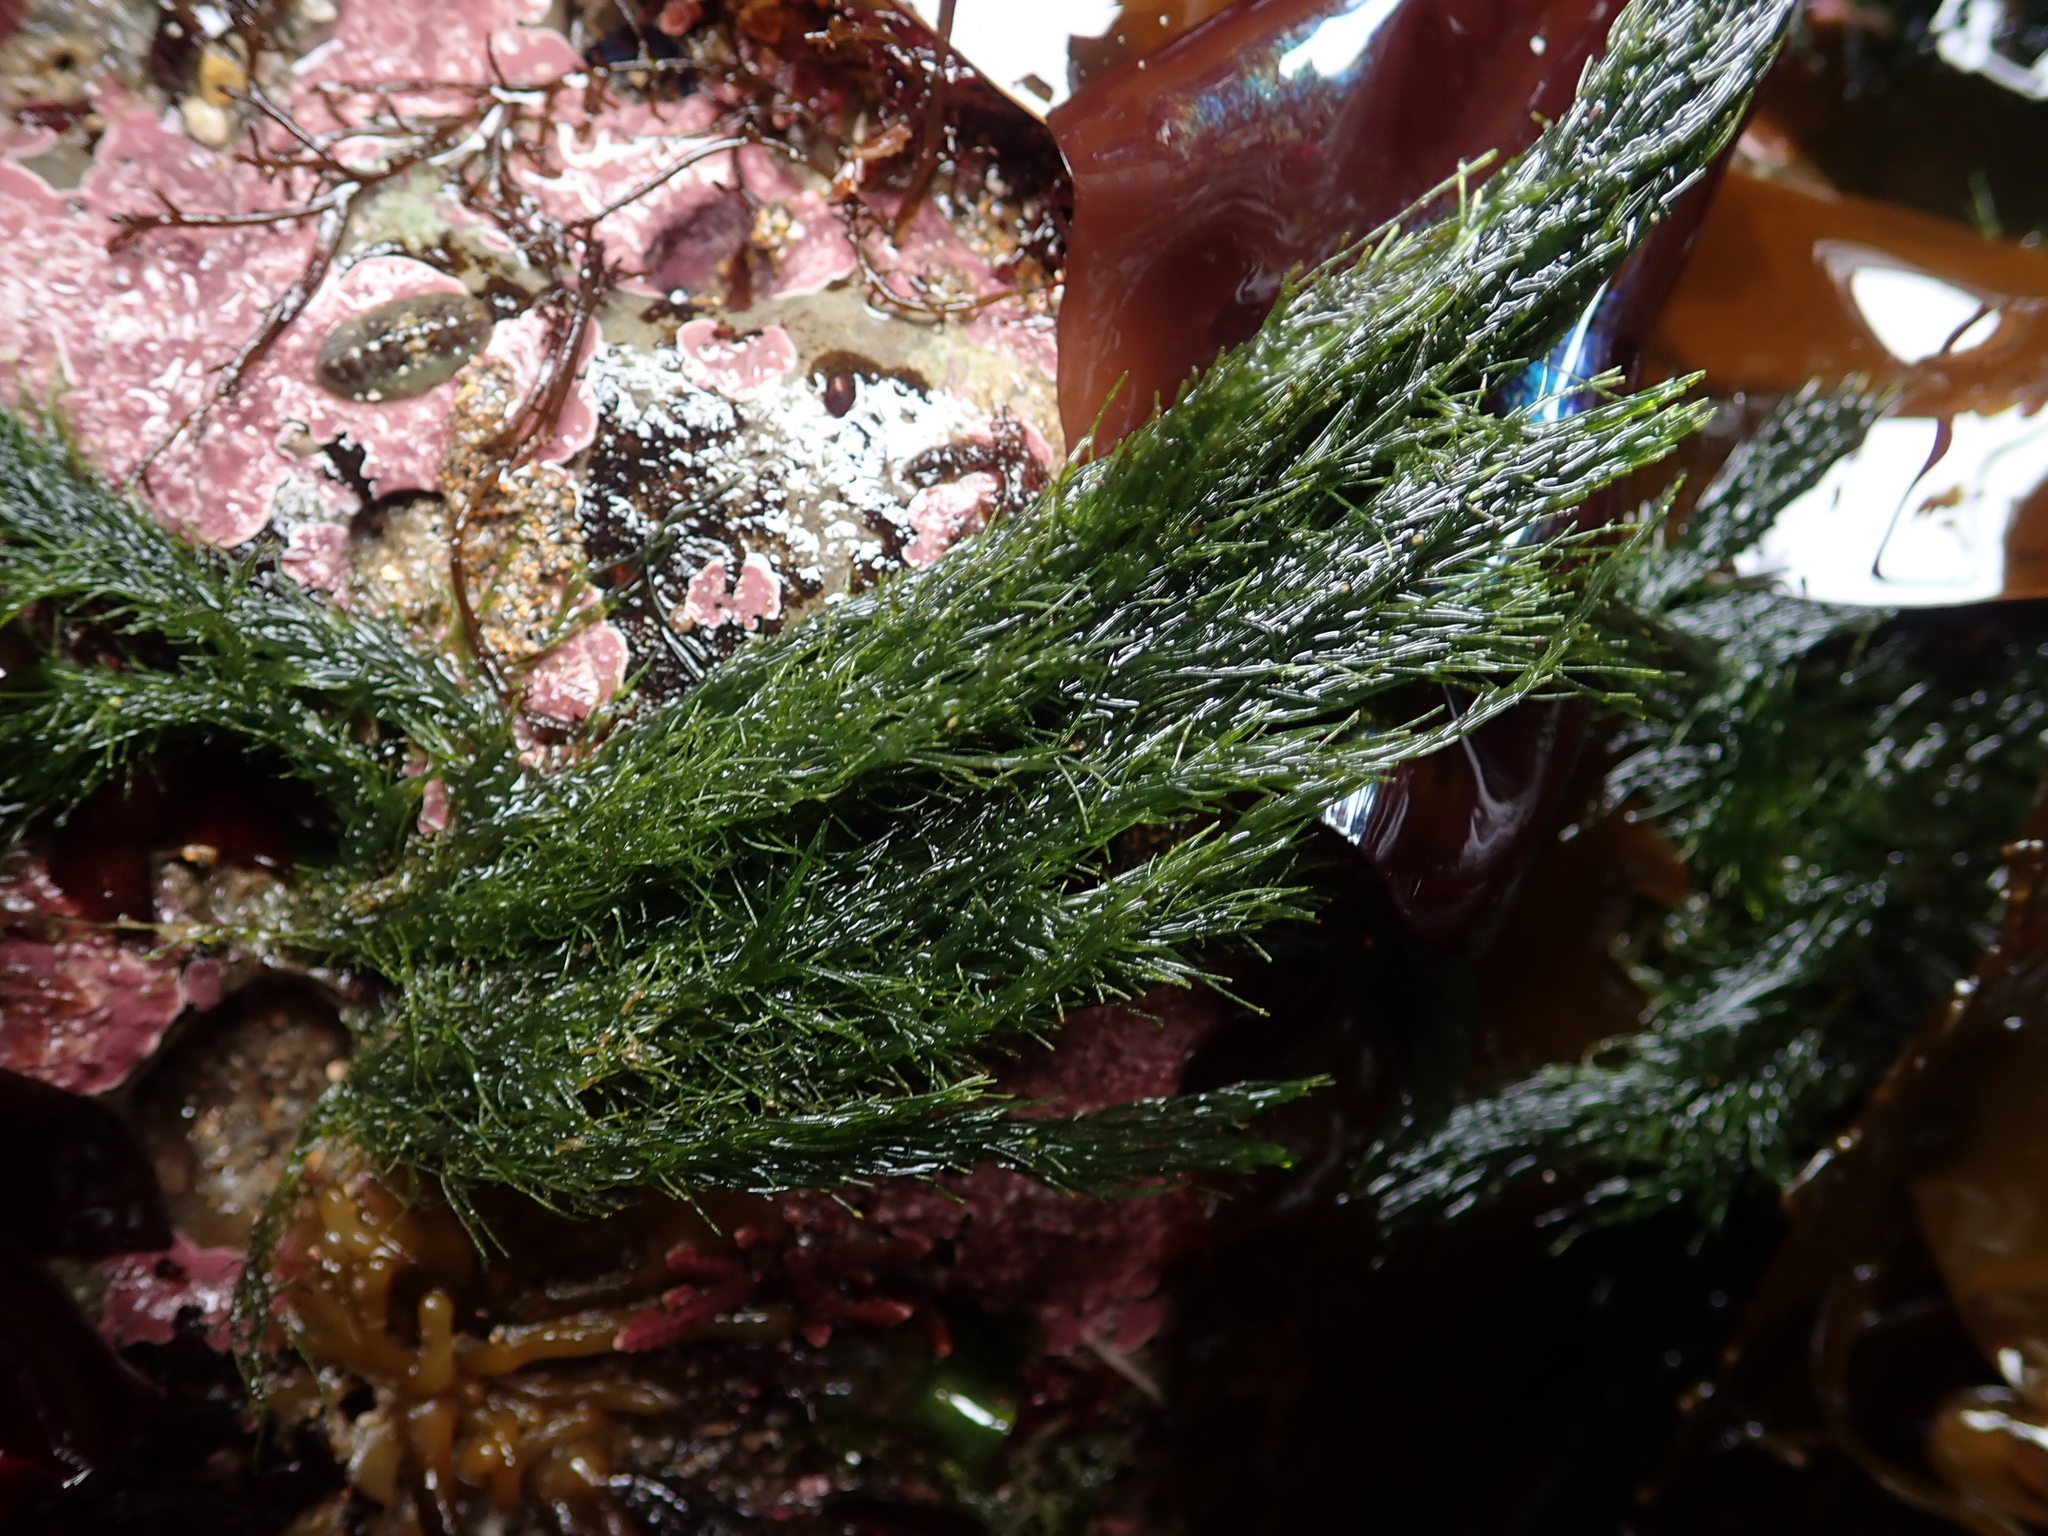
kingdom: Plantae
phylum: Chlorophyta
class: Ulvophyceae
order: Ulotrichales
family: Ulotrichaceae
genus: Acrosiphonia
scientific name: Acrosiphonia
